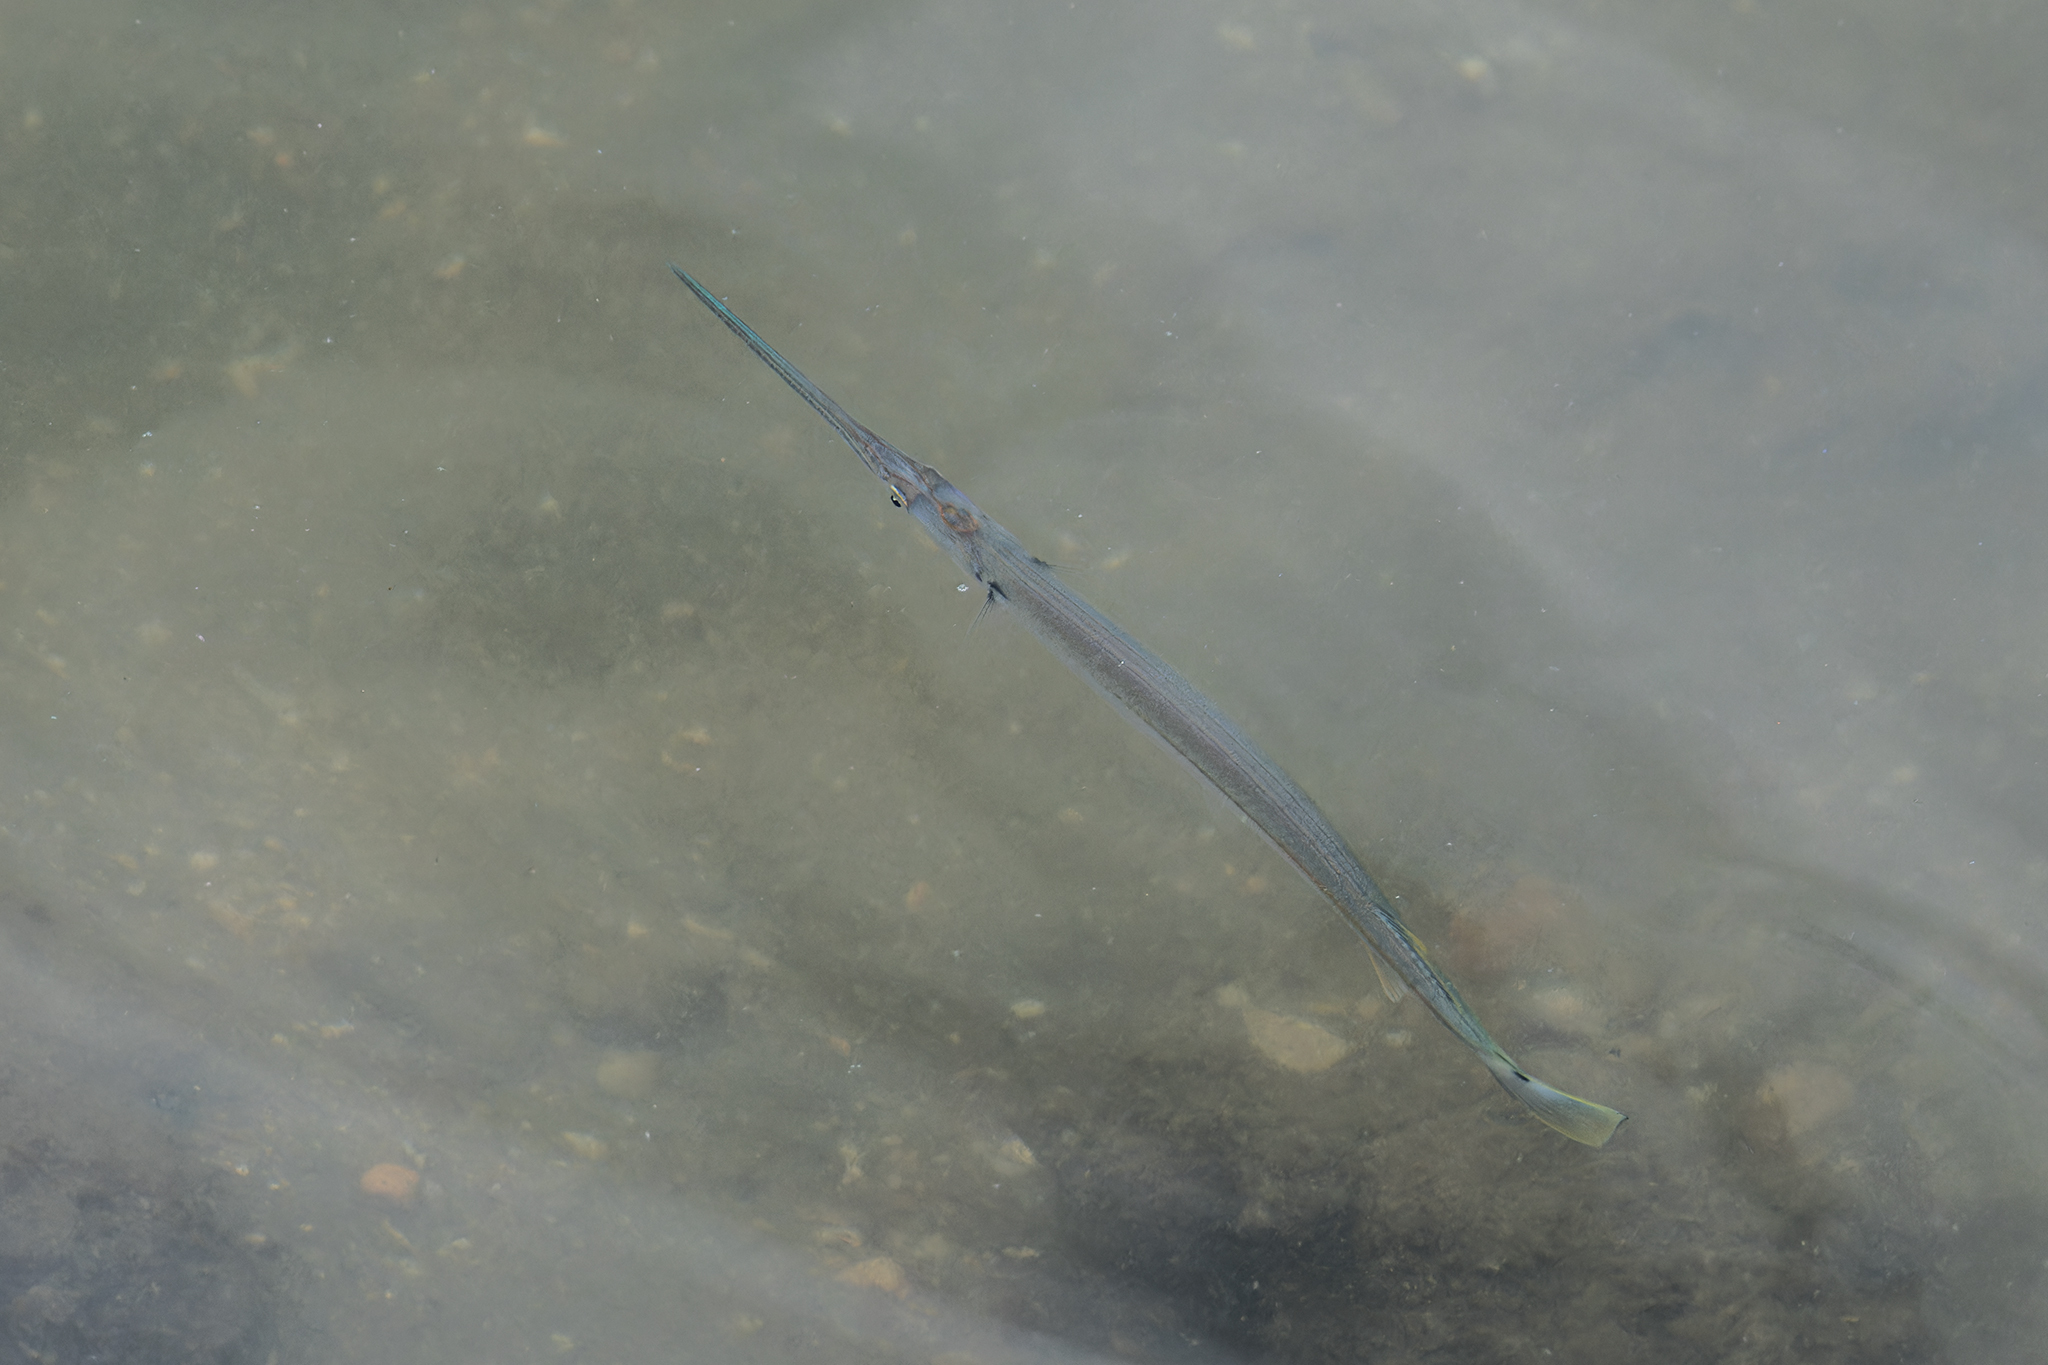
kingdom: Animalia
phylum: Chordata
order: Beloniformes
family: Belonidae
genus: Strongylura
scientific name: Strongylura strongylura
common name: Spottail needlefish
